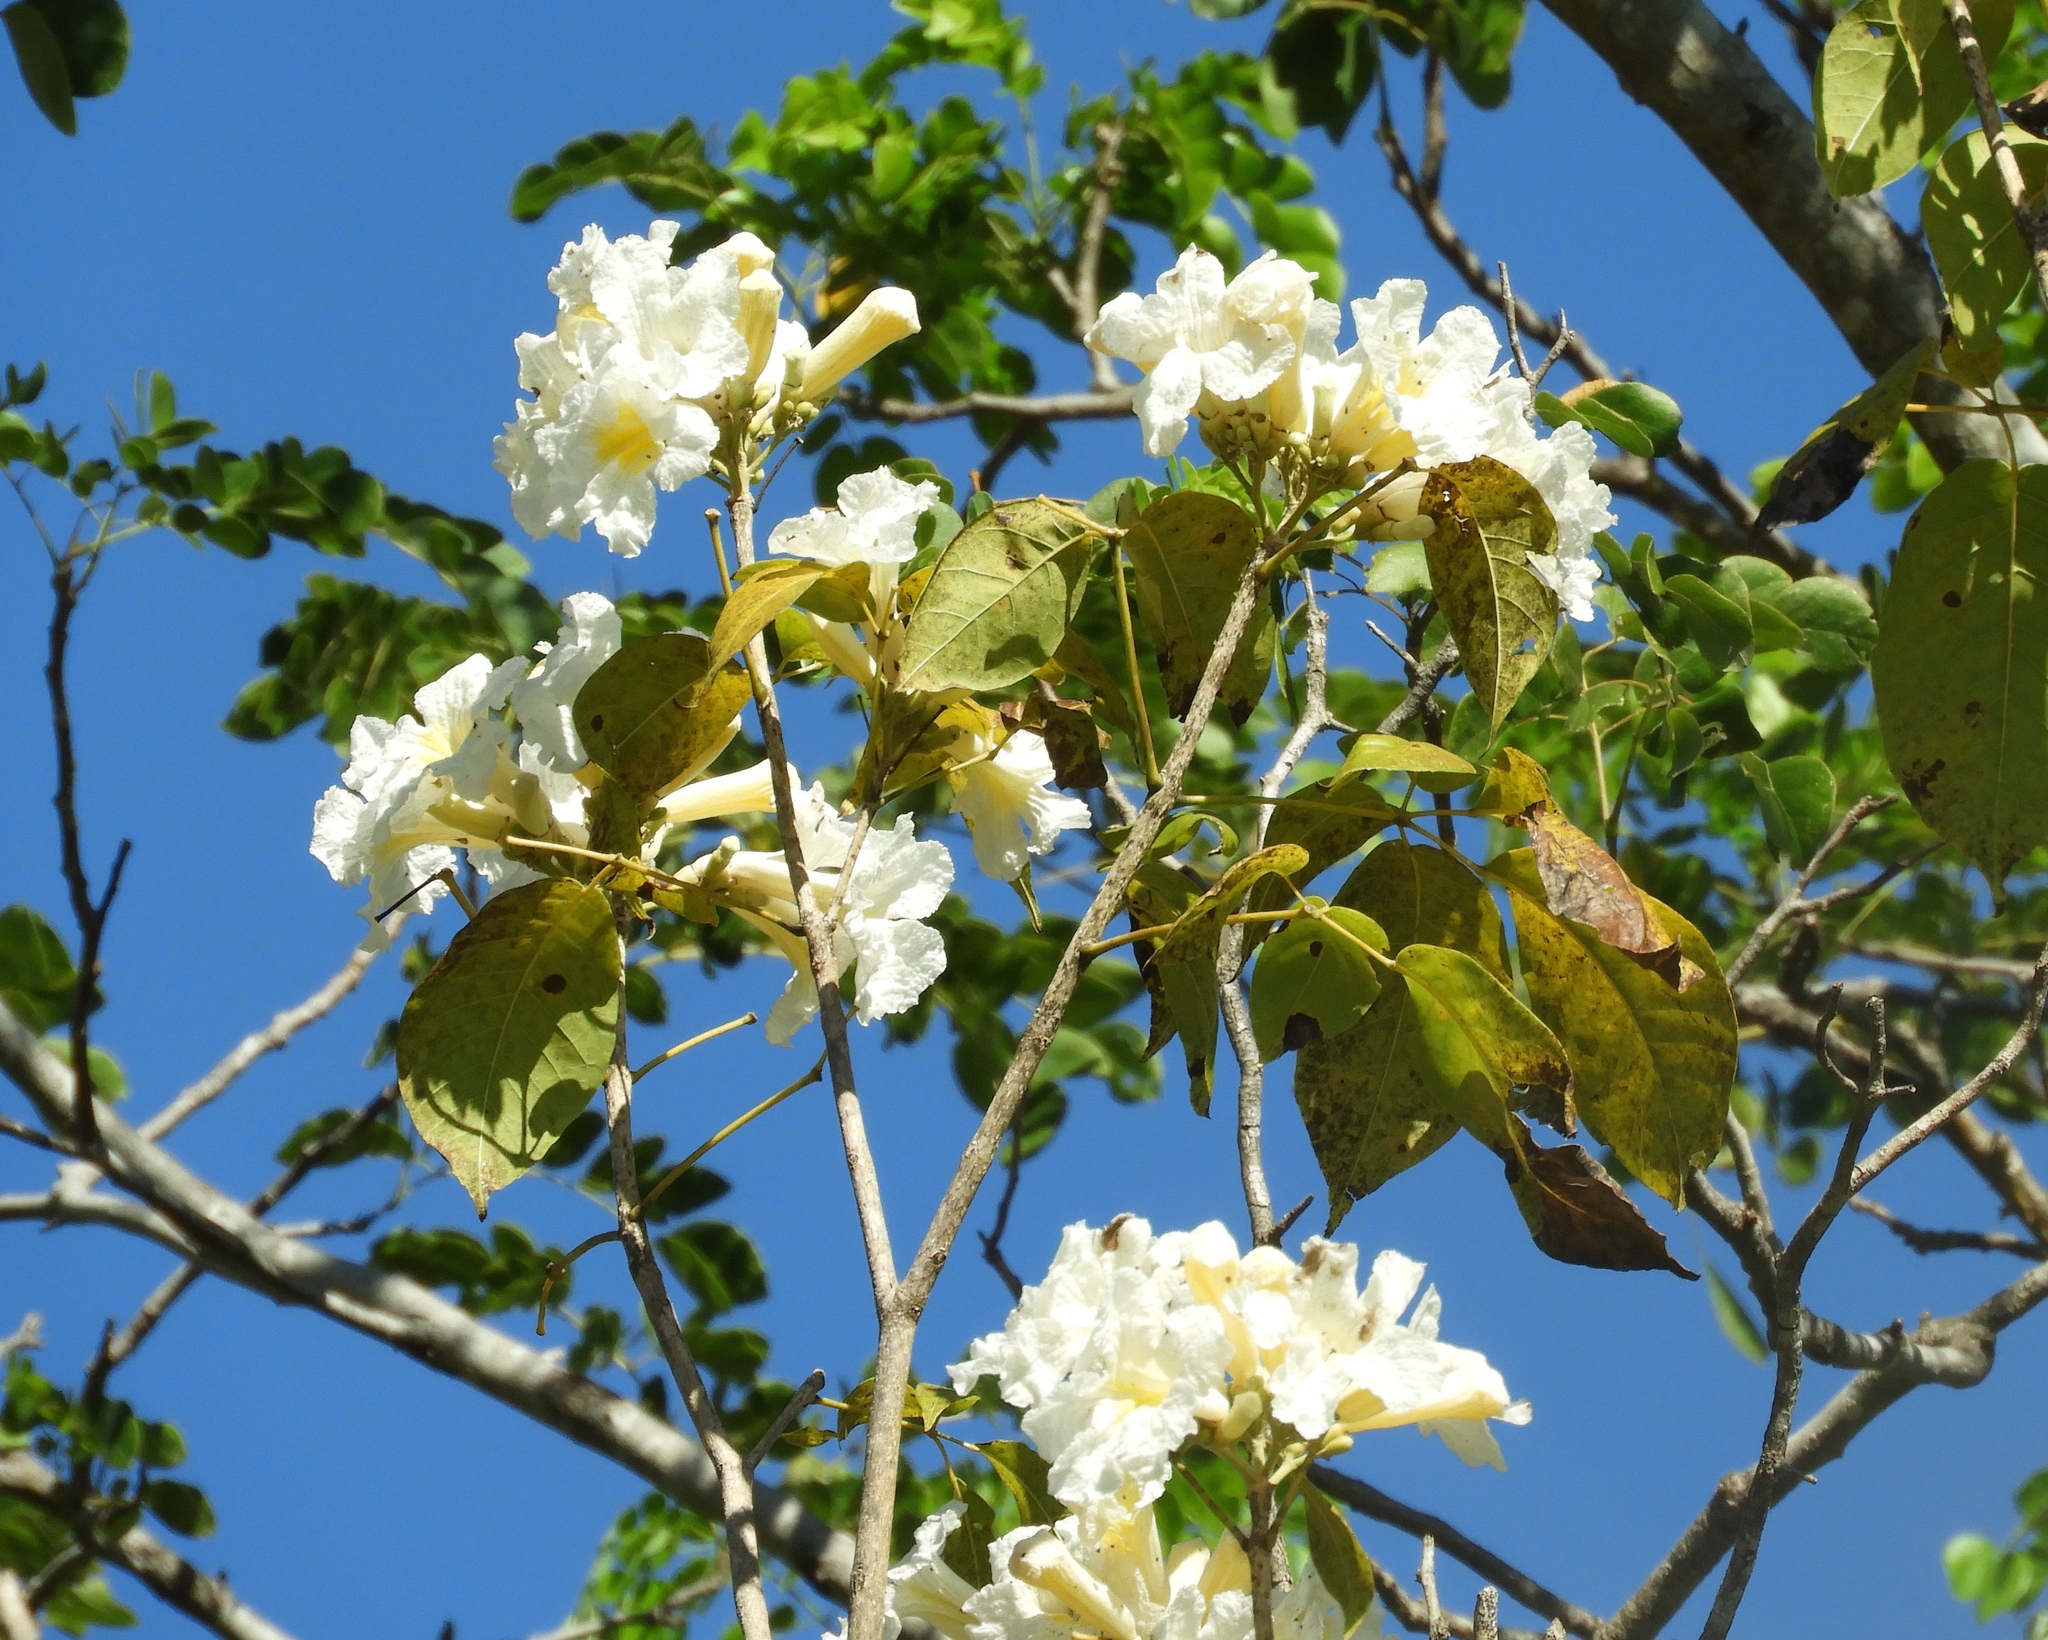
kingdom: Plantae
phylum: Tracheophyta
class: Magnoliopsida
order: Lamiales
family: Bignoniaceae
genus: Handroanthus
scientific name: Handroanthus impetiginosum
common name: Pink trumpet tree
